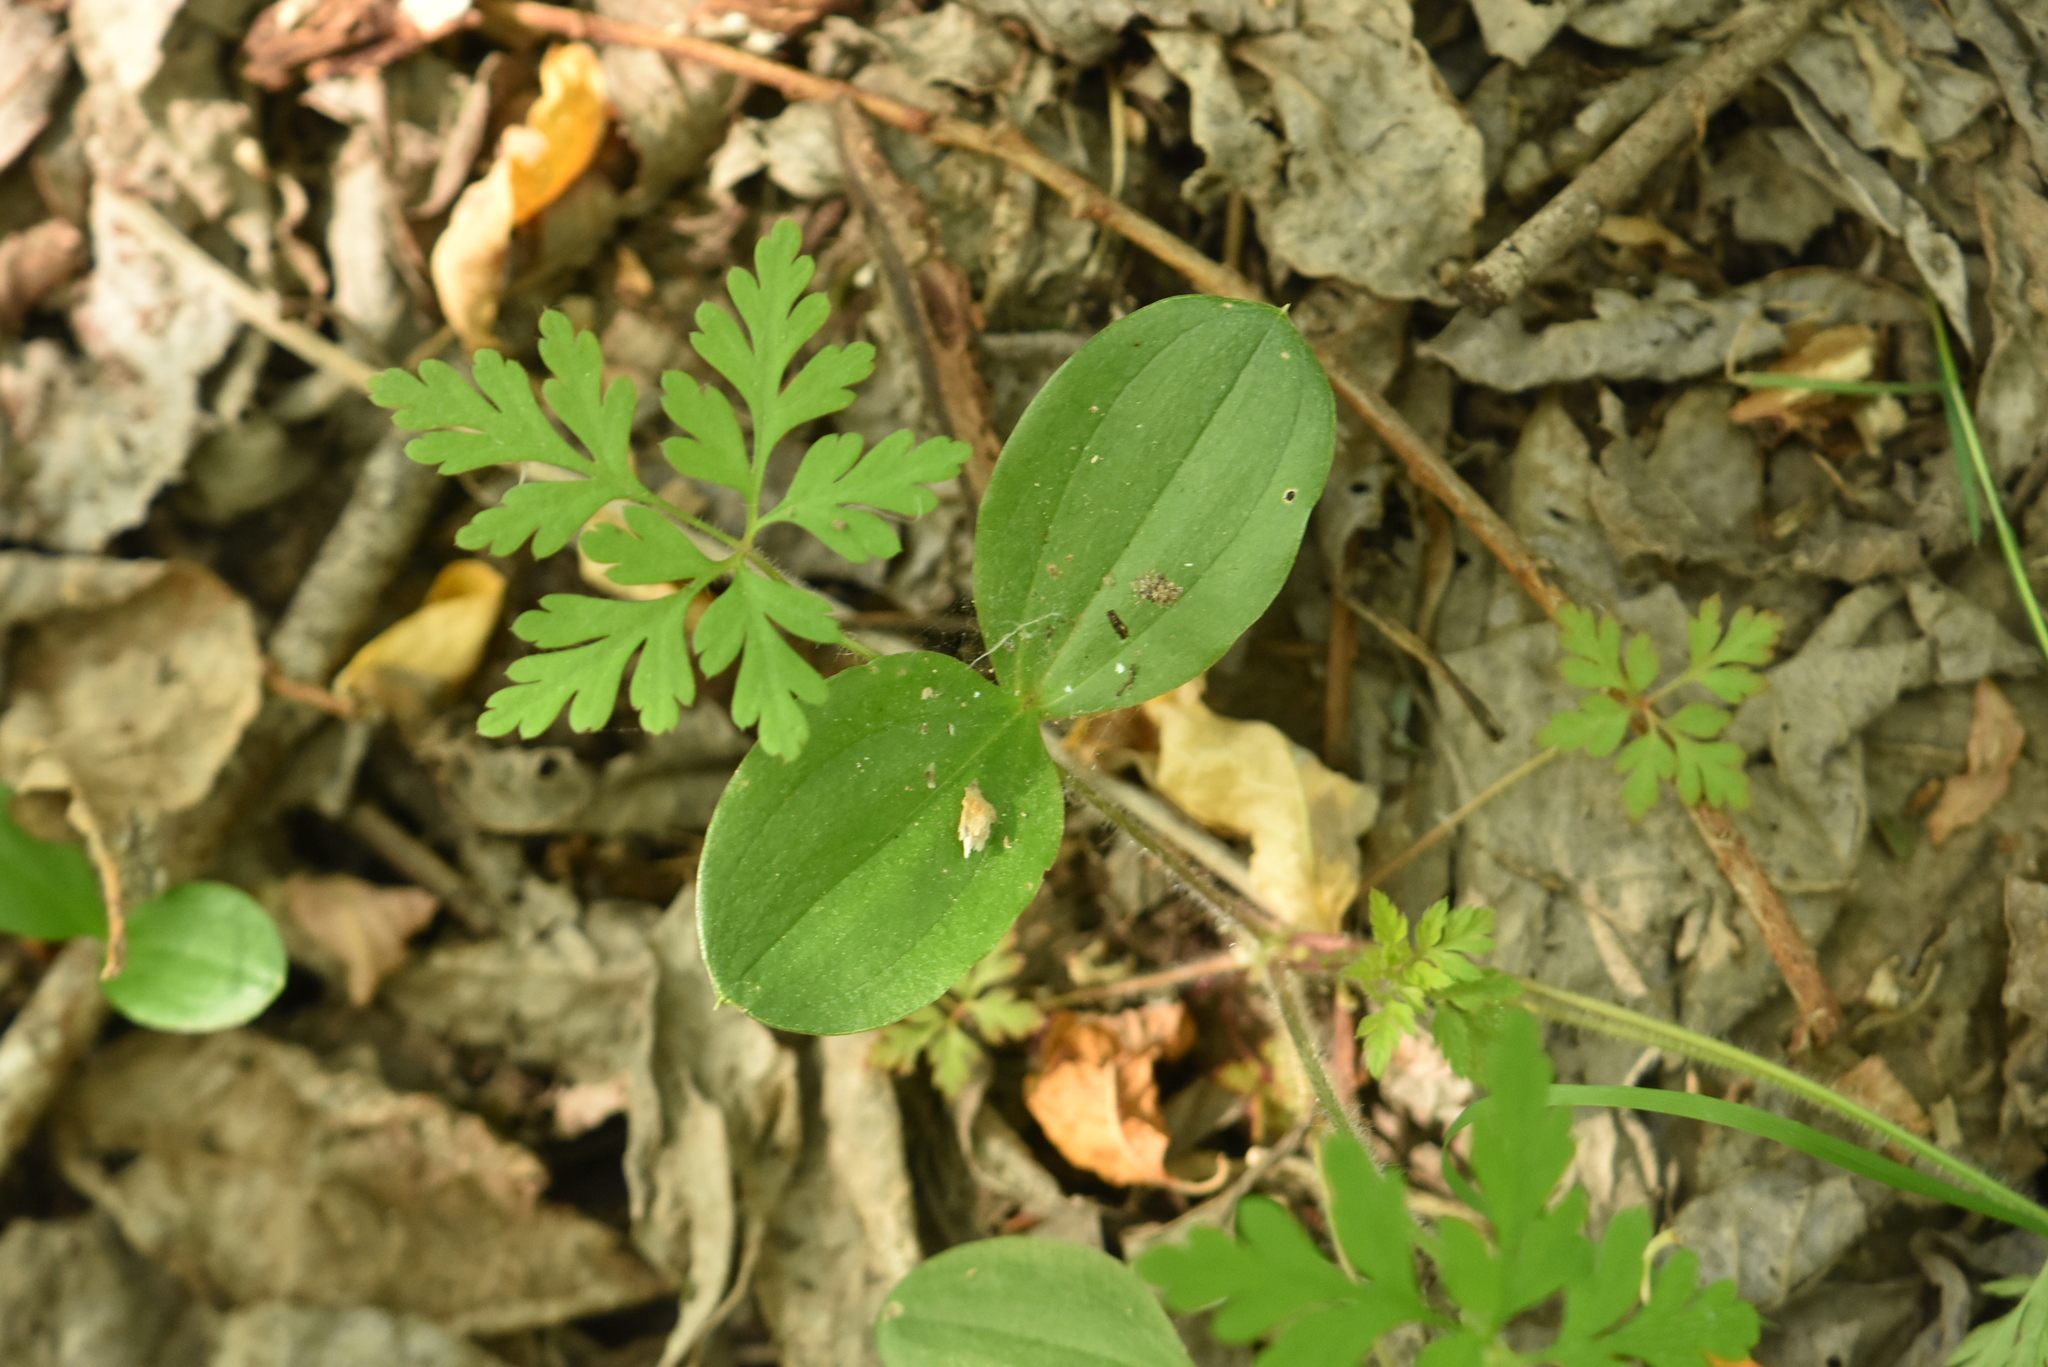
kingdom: Plantae
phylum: Tracheophyta
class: Liliopsida
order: Asparagales
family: Orchidaceae
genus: Neottia
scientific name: Neottia ovata
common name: Common twayblade
